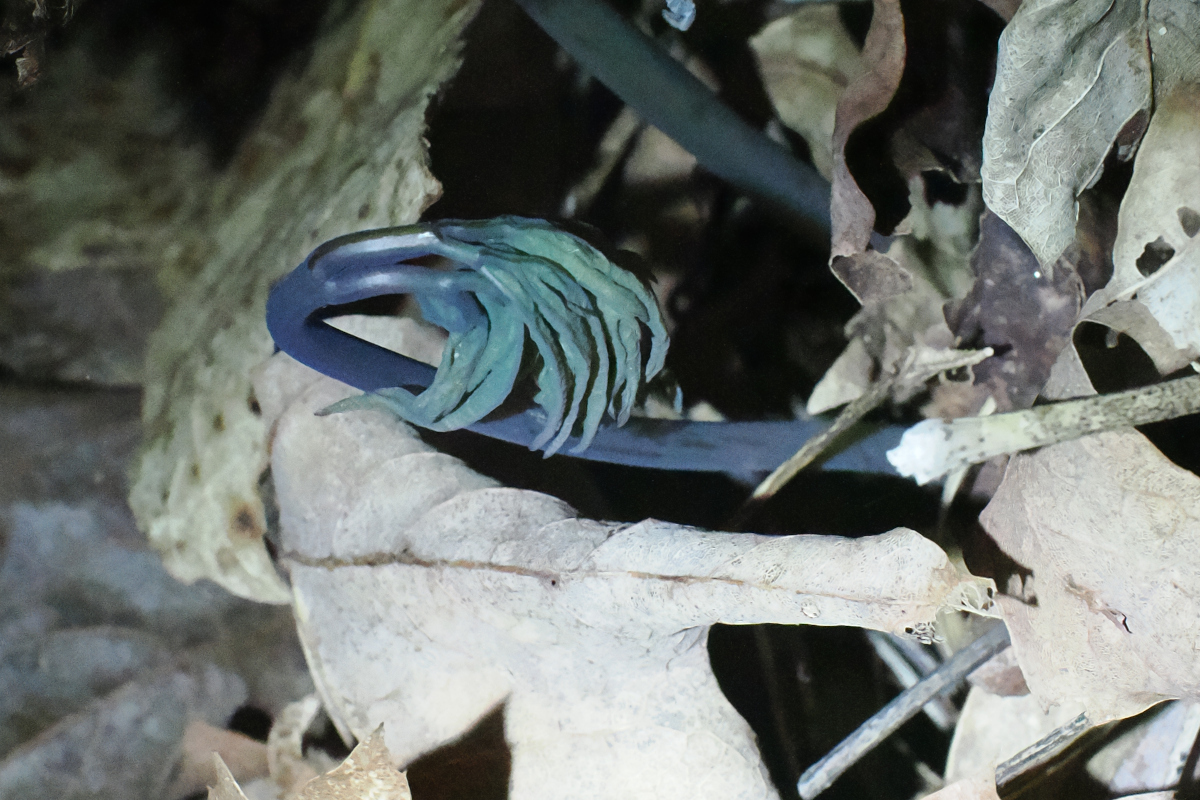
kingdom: Plantae
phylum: Tracheophyta
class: Magnoliopsida
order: Ranunculales
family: Berberidaceae
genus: Caulophyllum
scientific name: Caulophyllum thalictroides
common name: Blue cohosh
